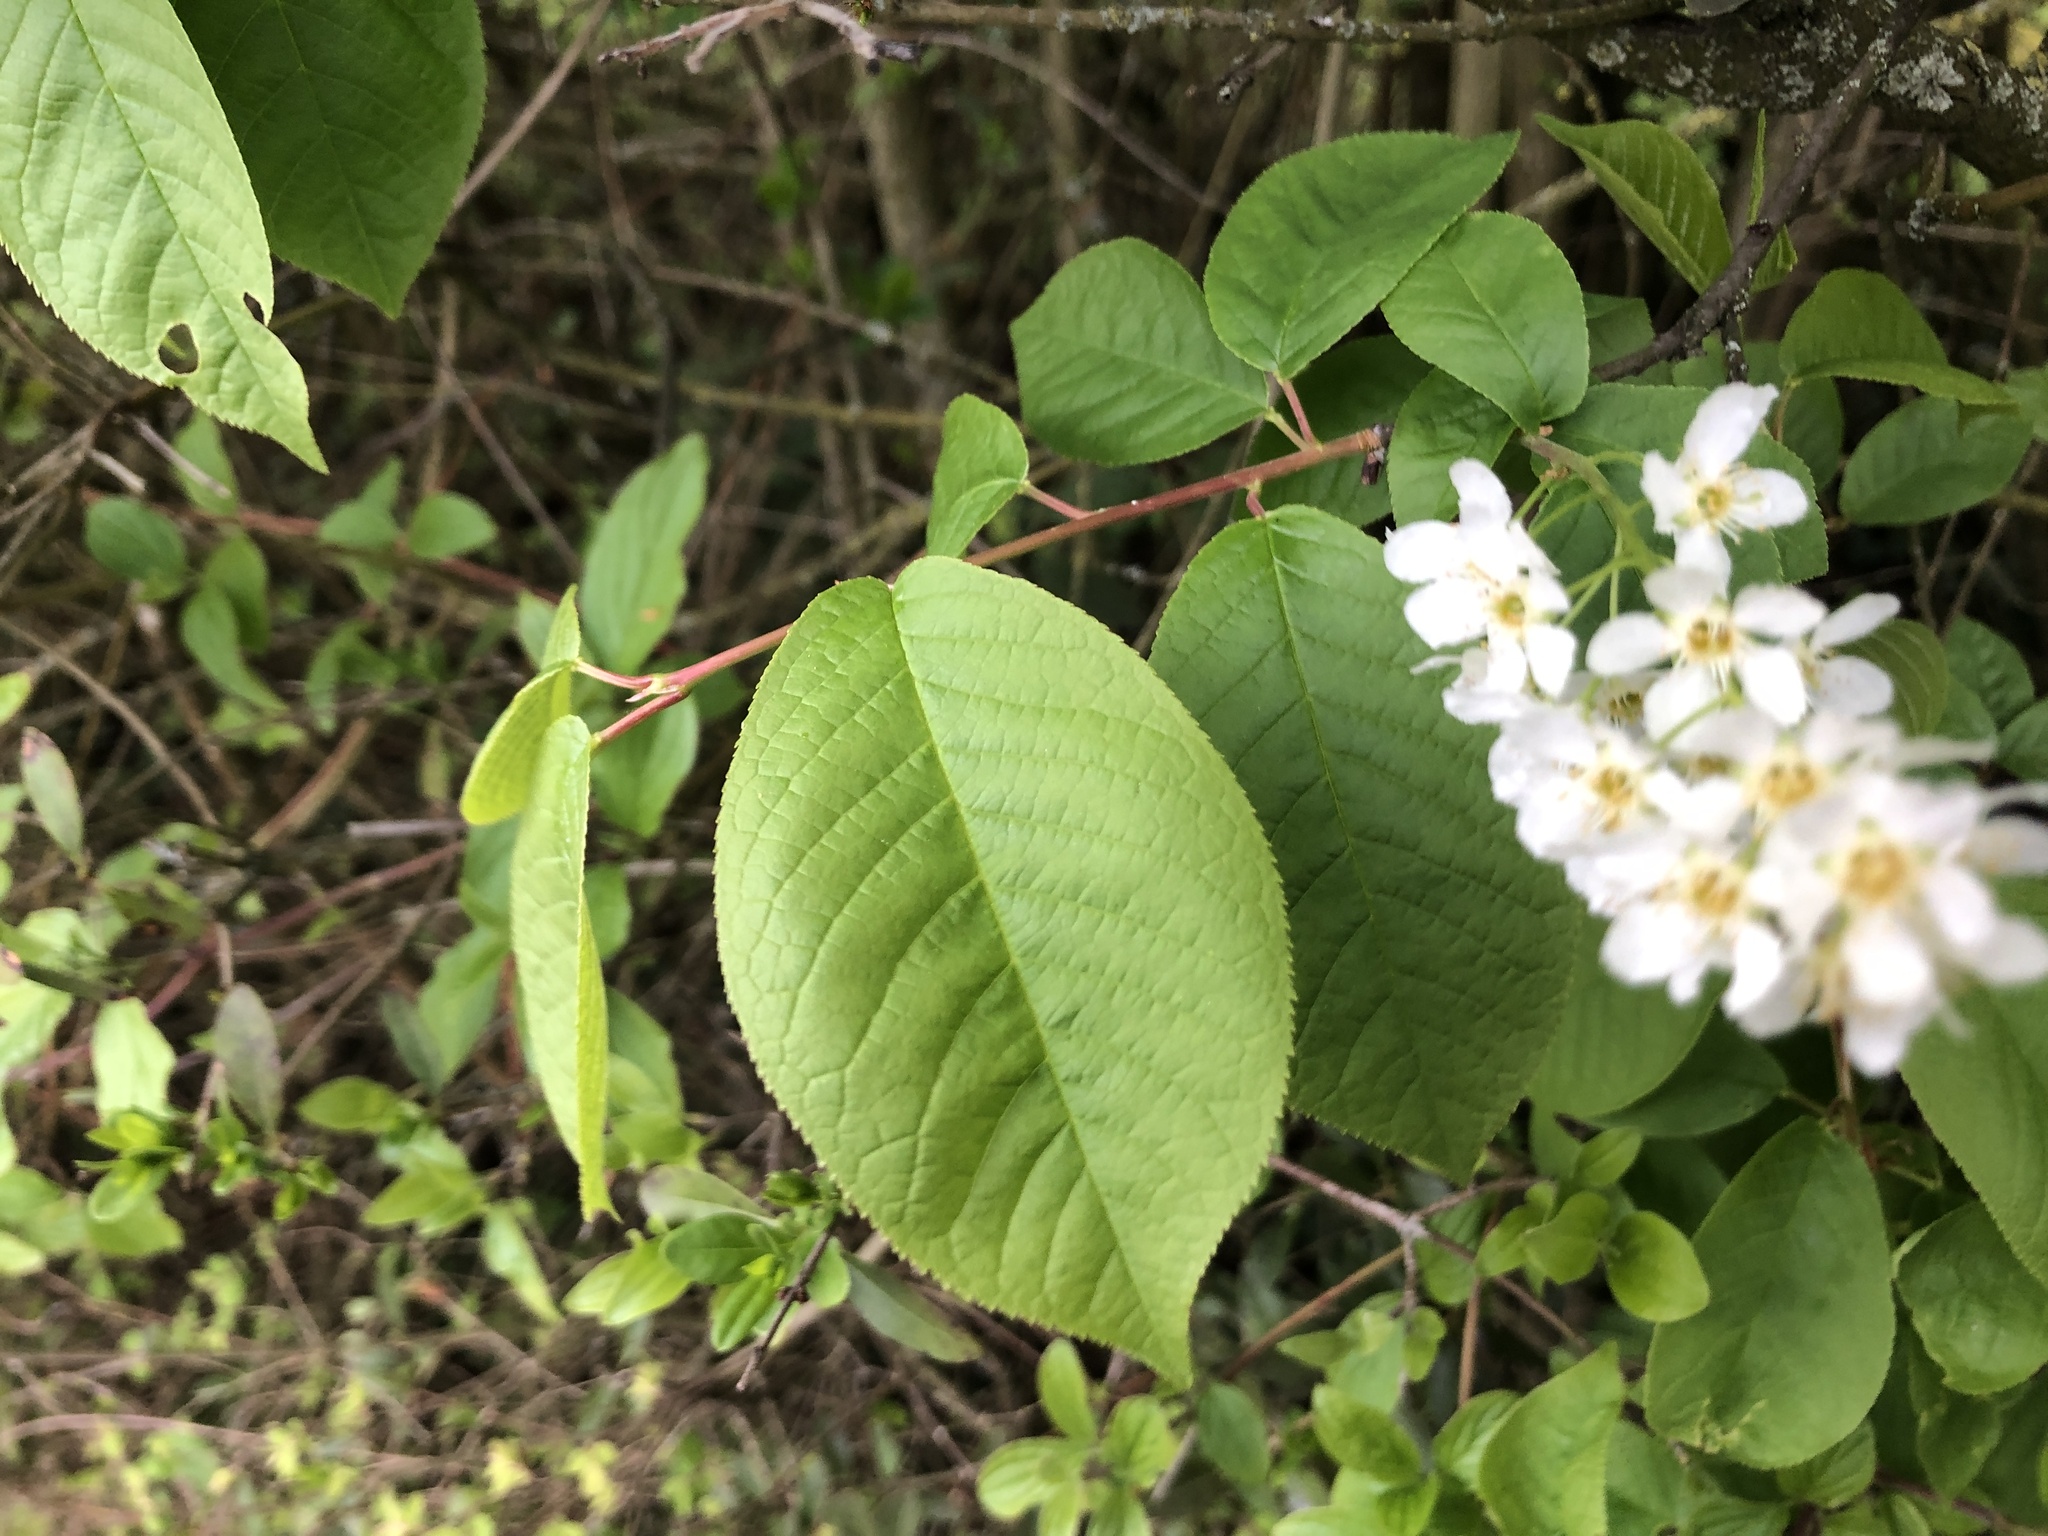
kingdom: Plantae
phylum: Tracheophyta
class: Magnoliopsida
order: Rosales
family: Rosaceae
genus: Prunus
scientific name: Prunus padus
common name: Bird cherry
